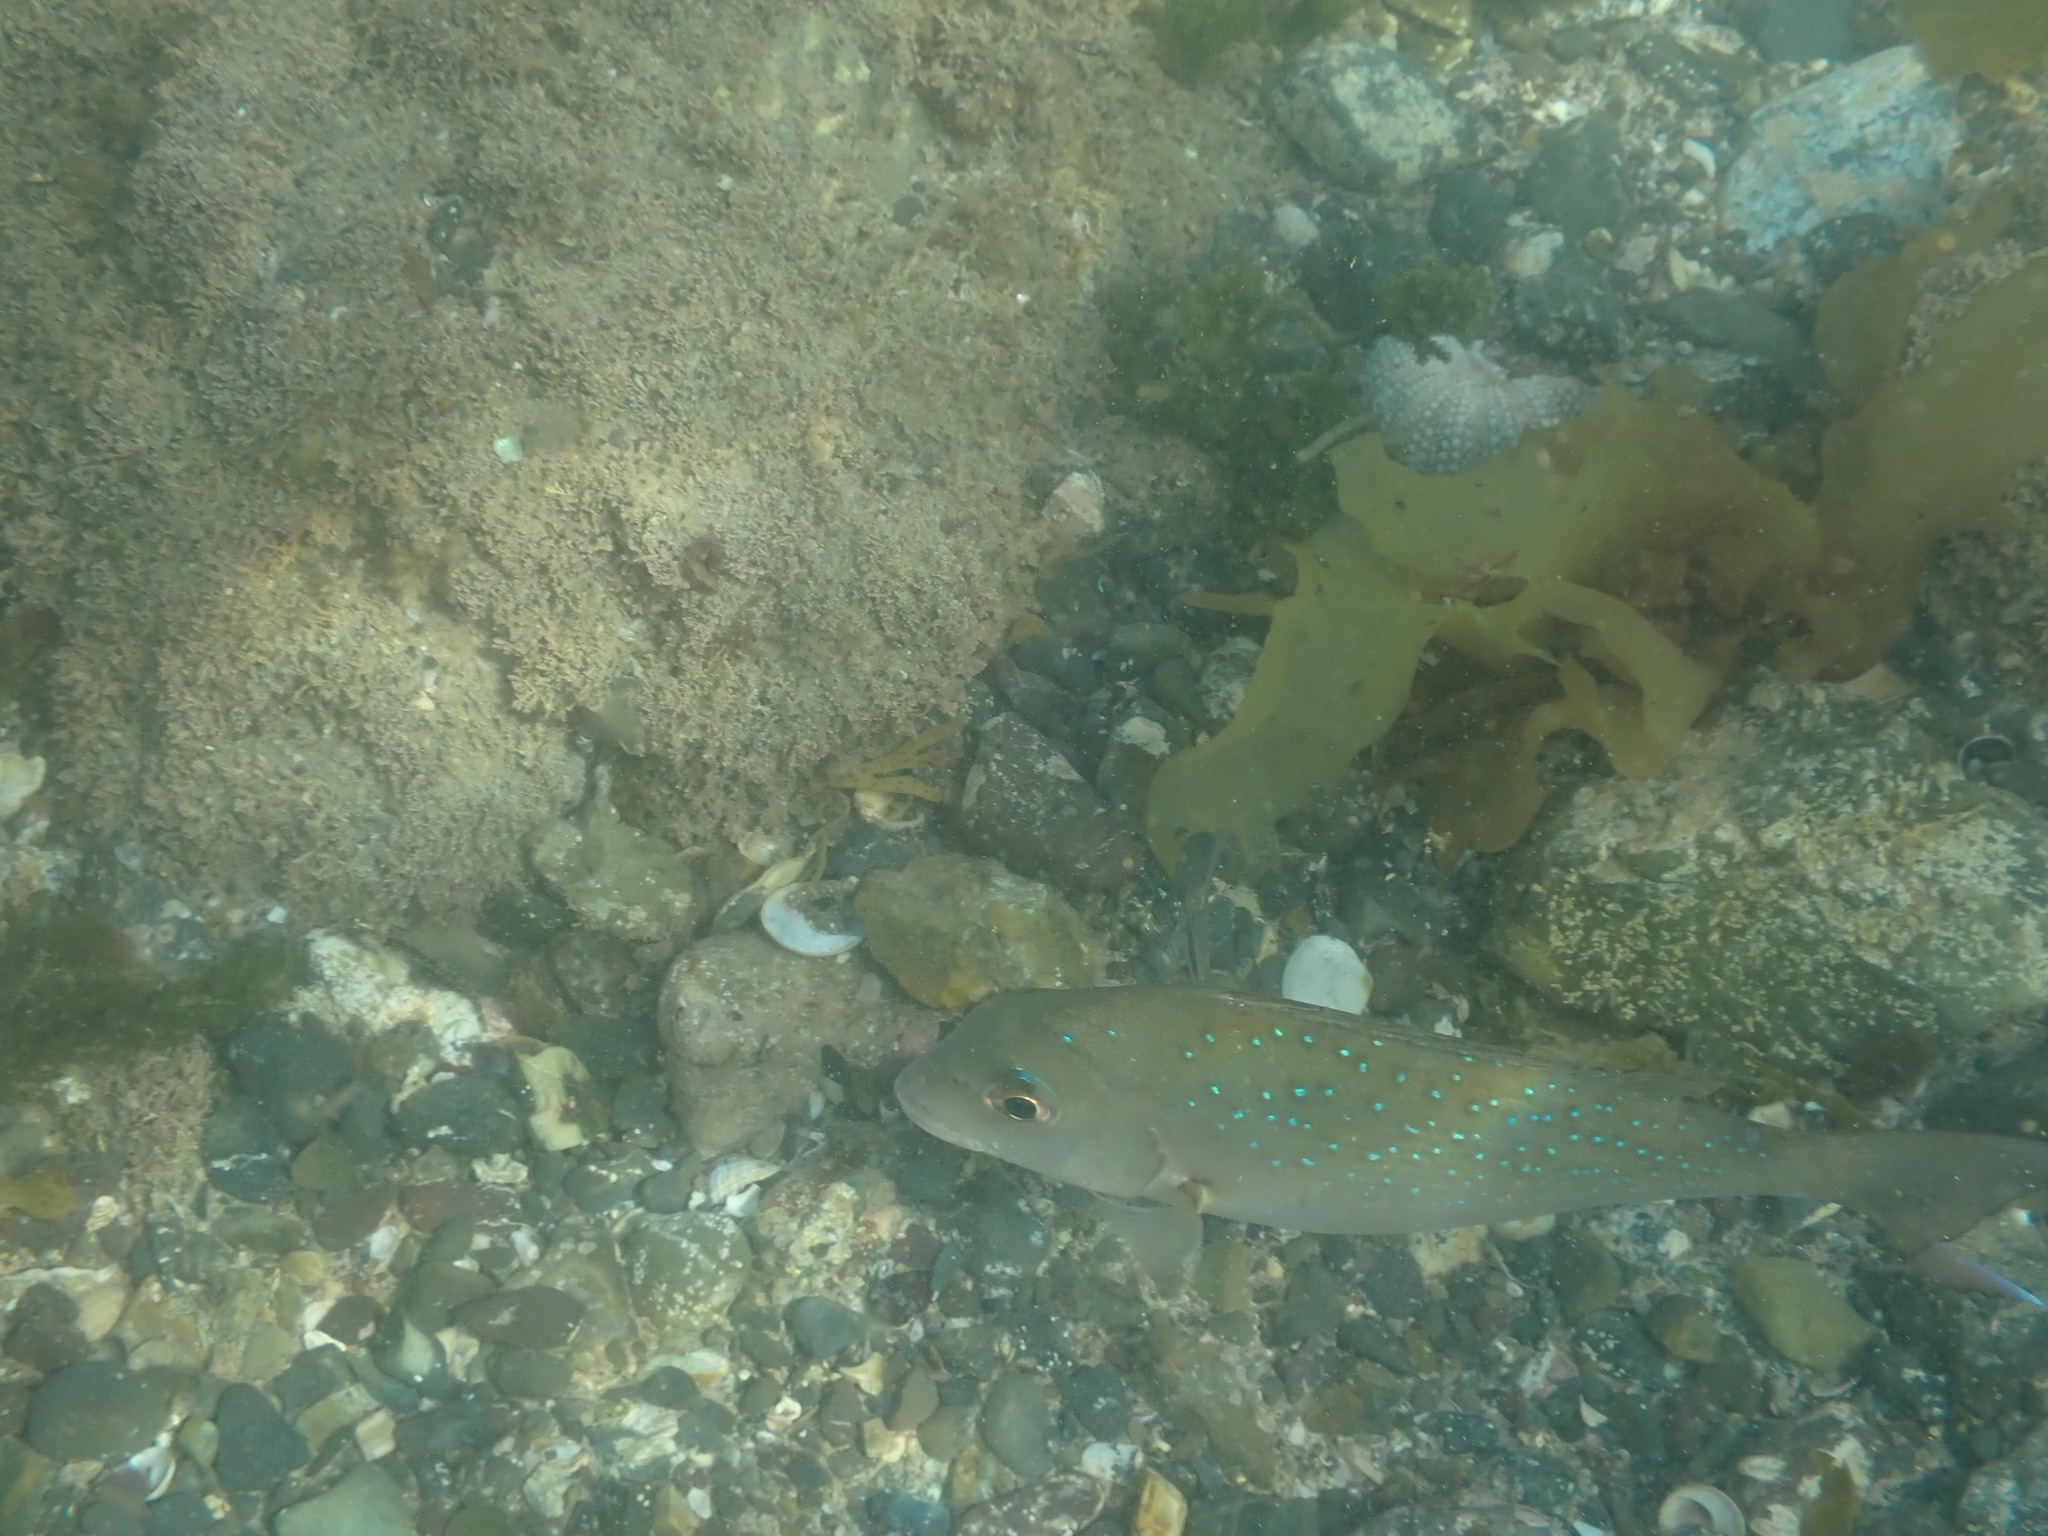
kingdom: Animalia
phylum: Chordata
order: Perciformes
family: Sparidae
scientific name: Sparidae
